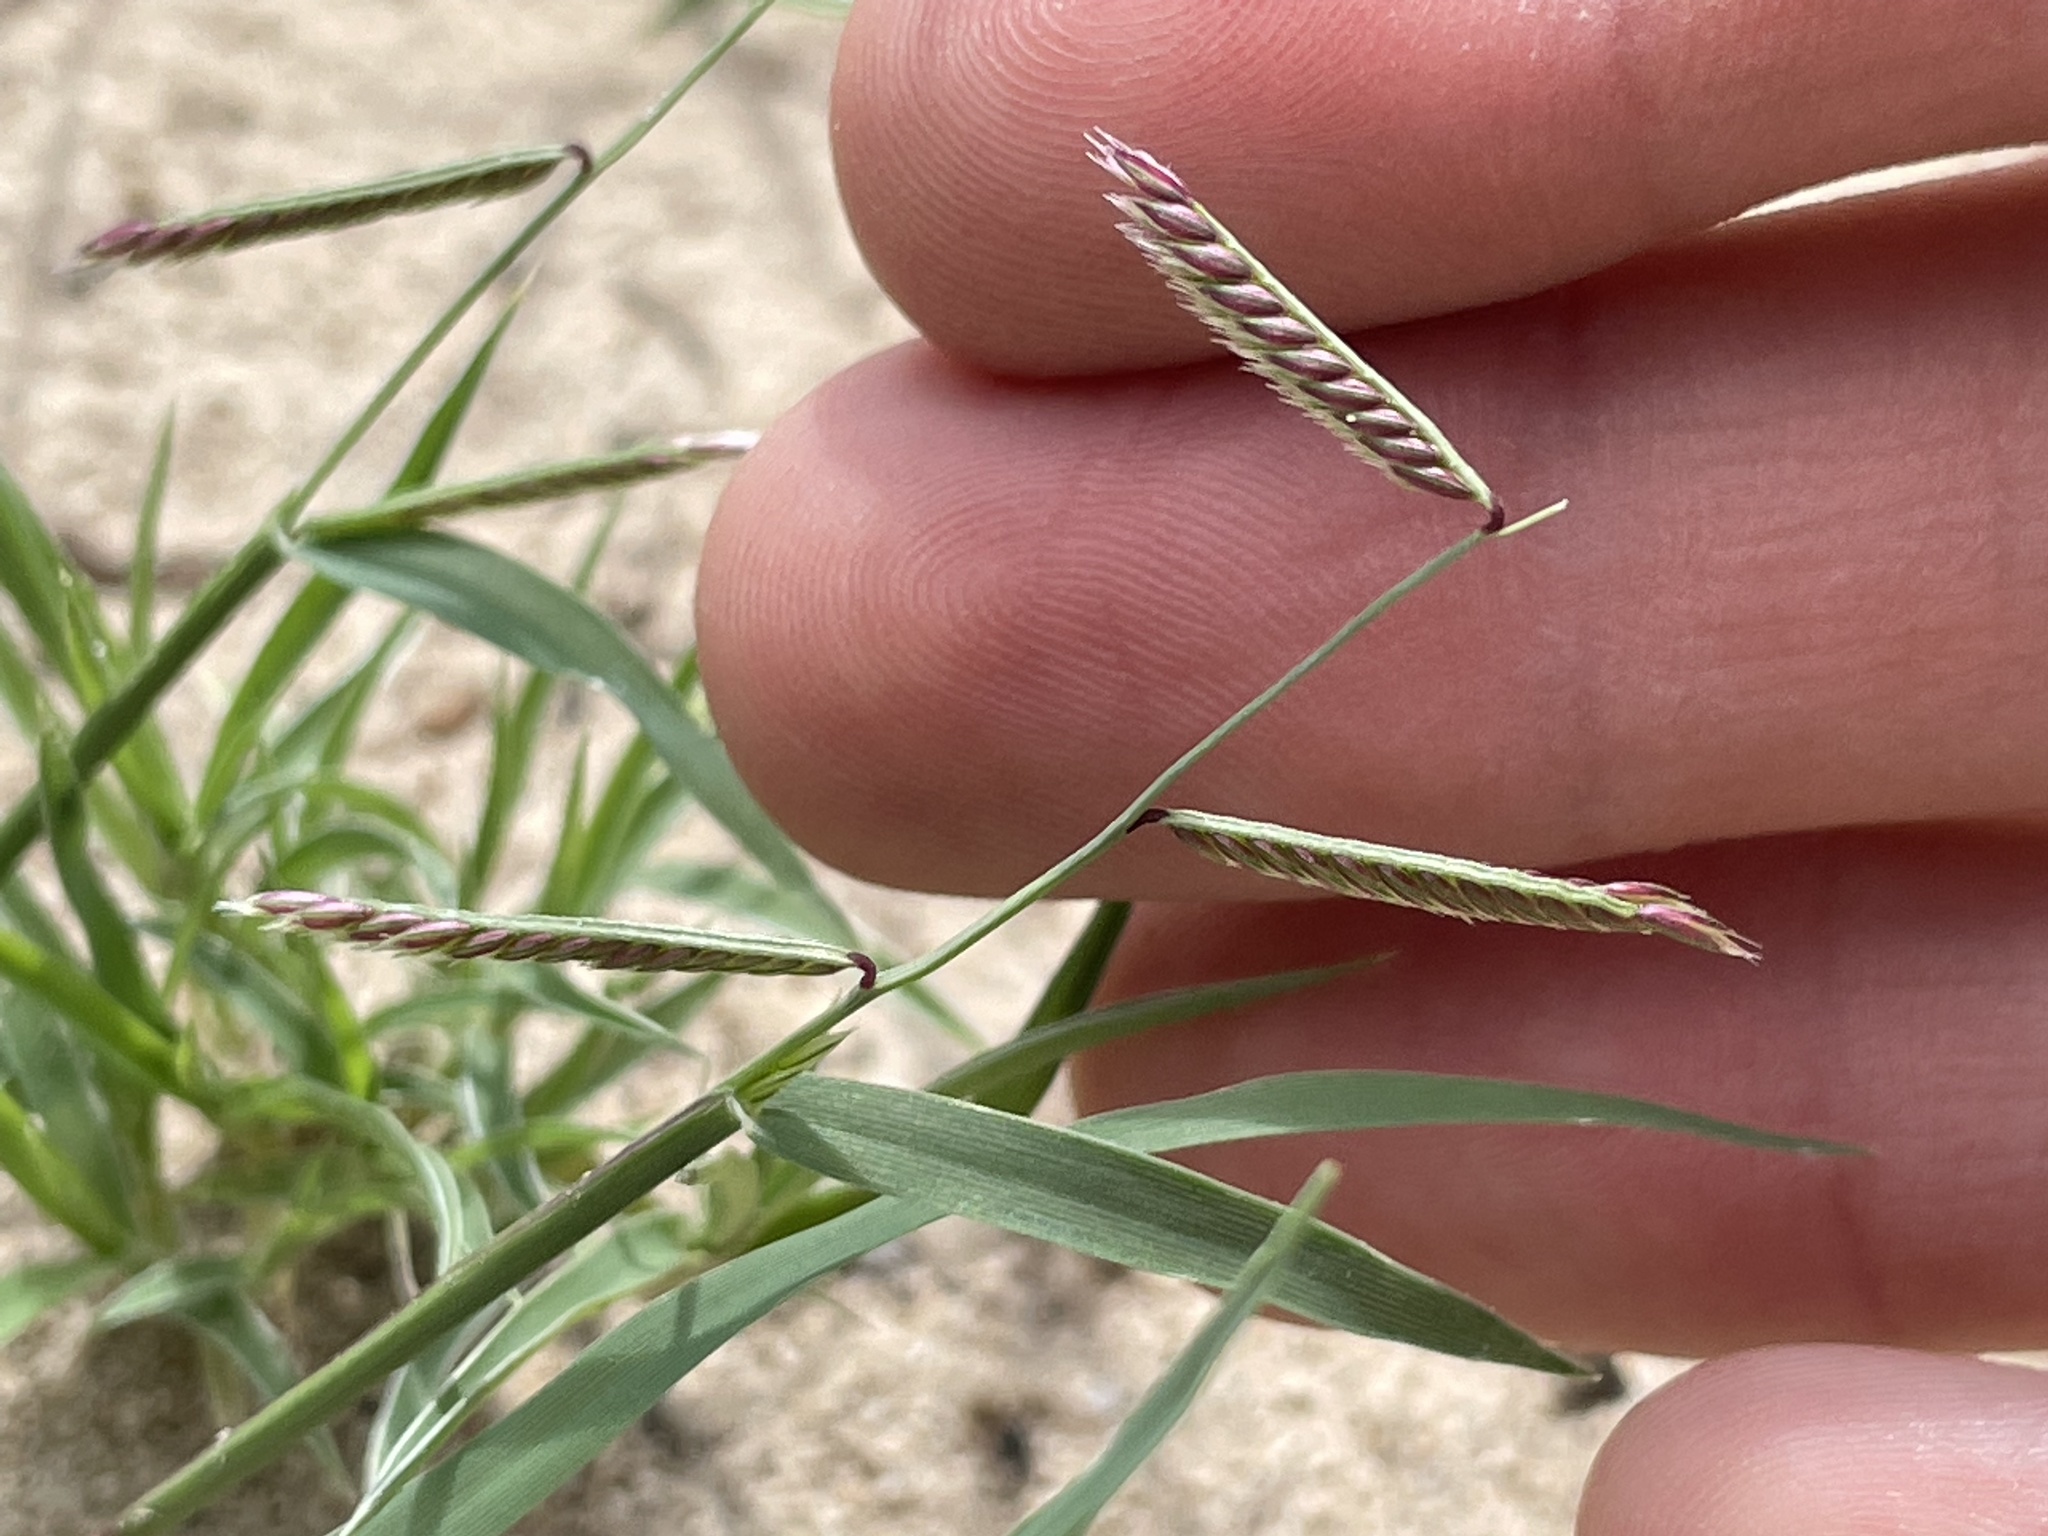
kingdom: Plantae
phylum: Tracheophyta
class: Liliopsida
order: Poales
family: Poaceae
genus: Bouteloua
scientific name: Bouteloua barbata
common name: Six-weeks grama
